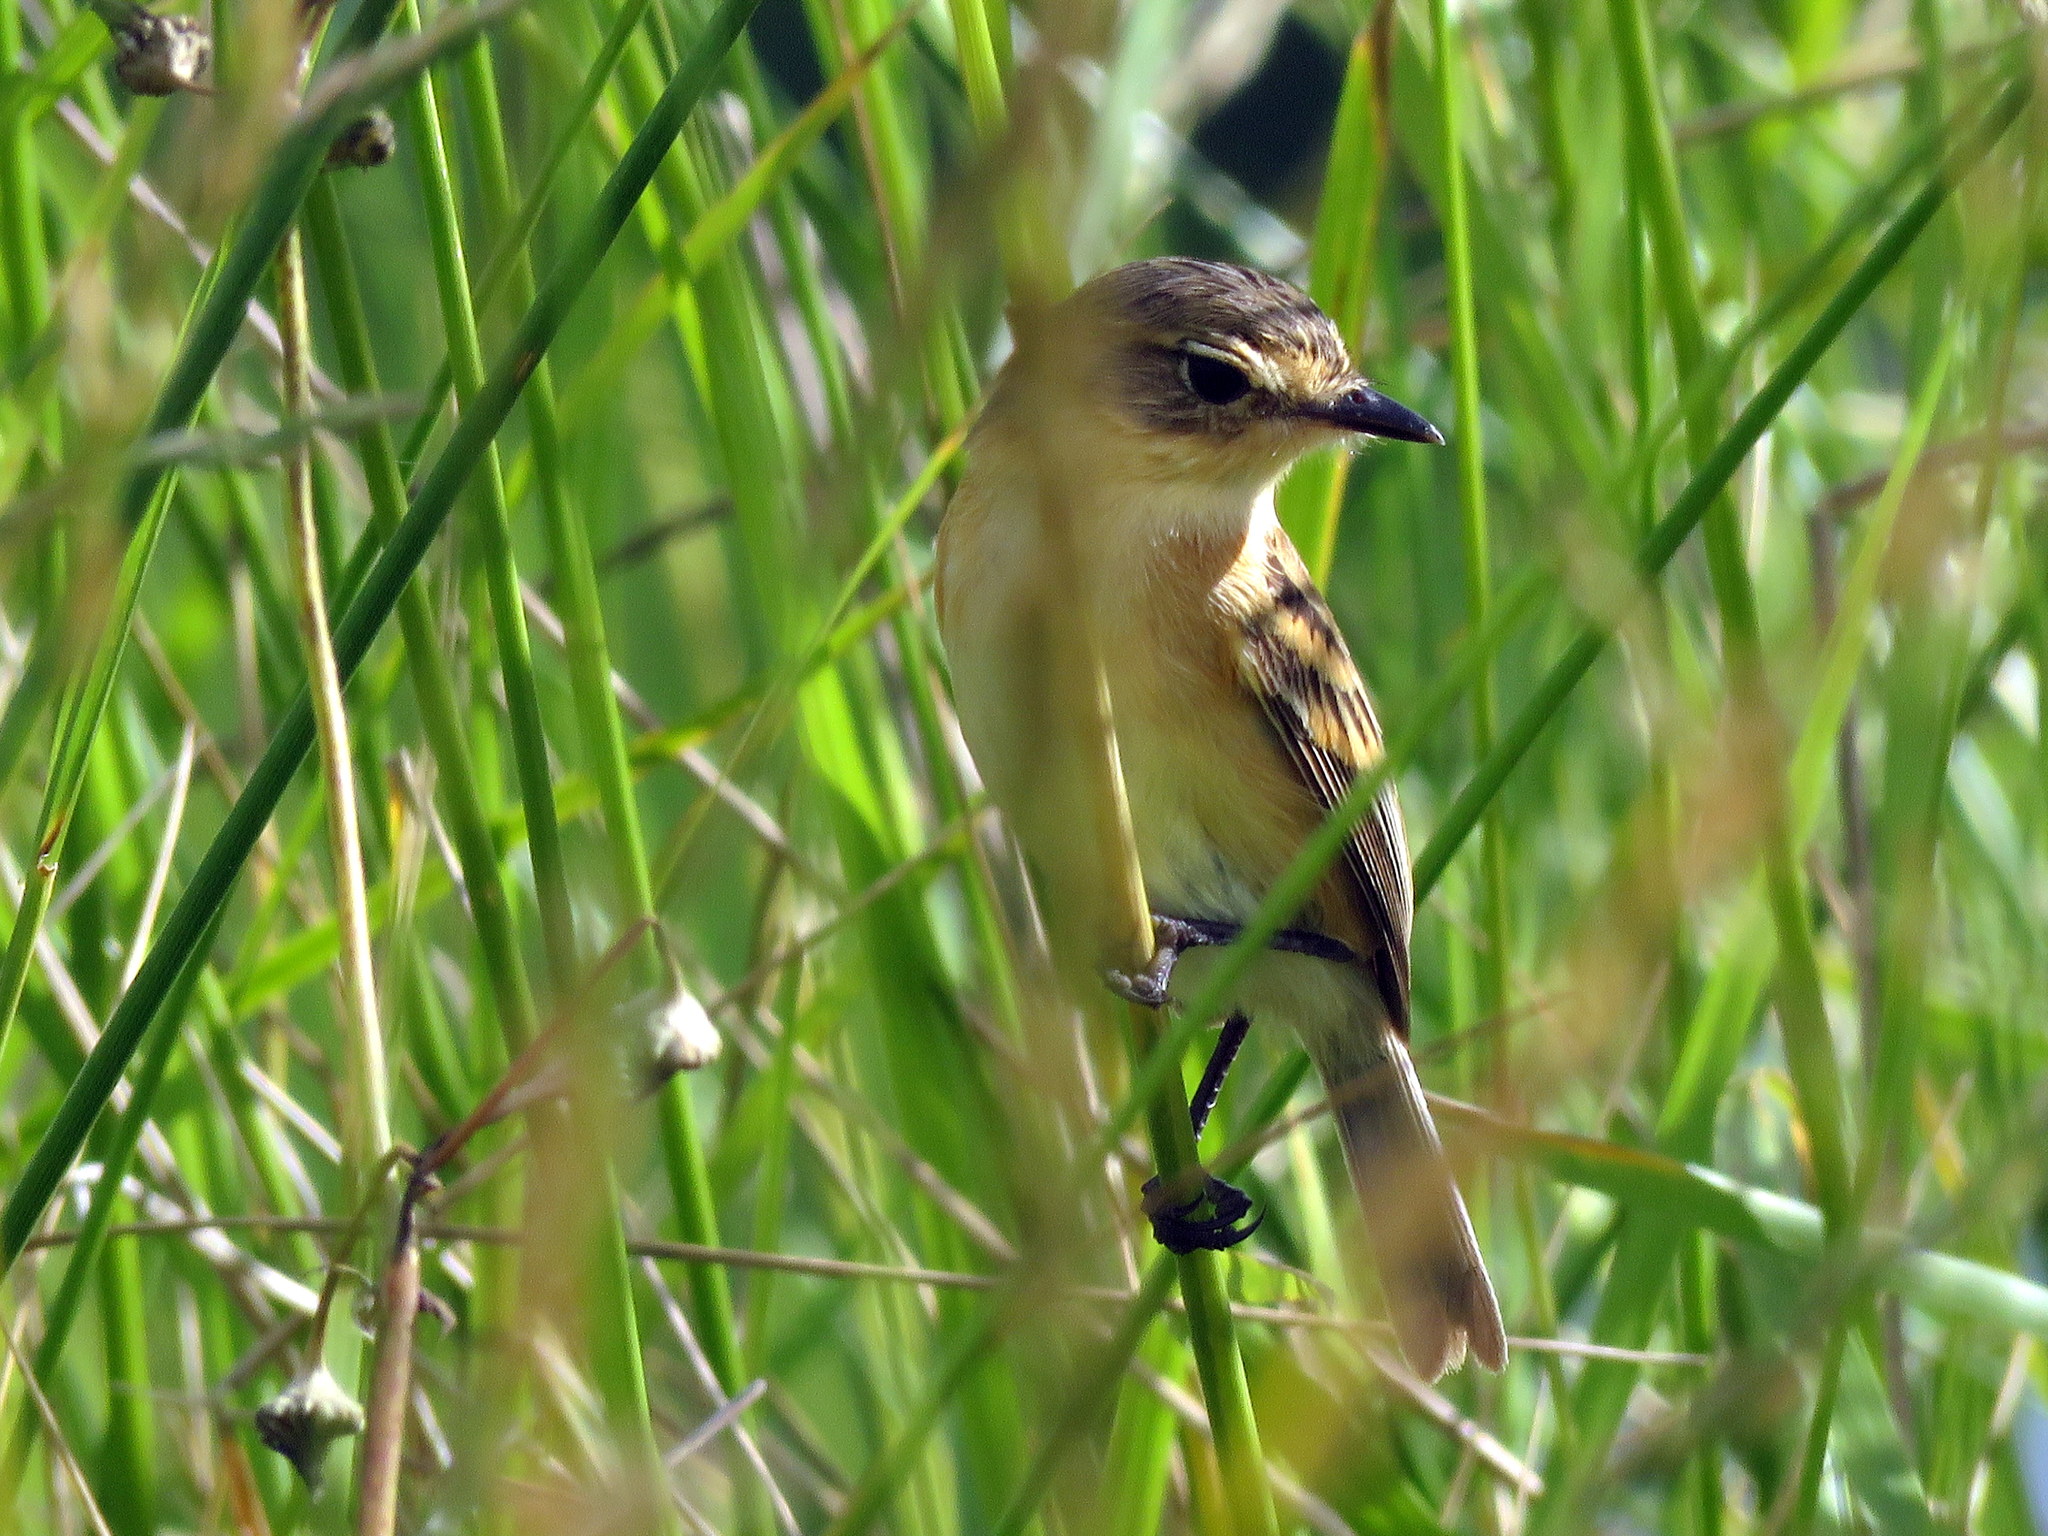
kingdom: Animalia
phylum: Chordata
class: Aves
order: Passeriformes
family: Tyrannidae
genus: Polystictus
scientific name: Polystictus pectoralis
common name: Bearded tachuri
